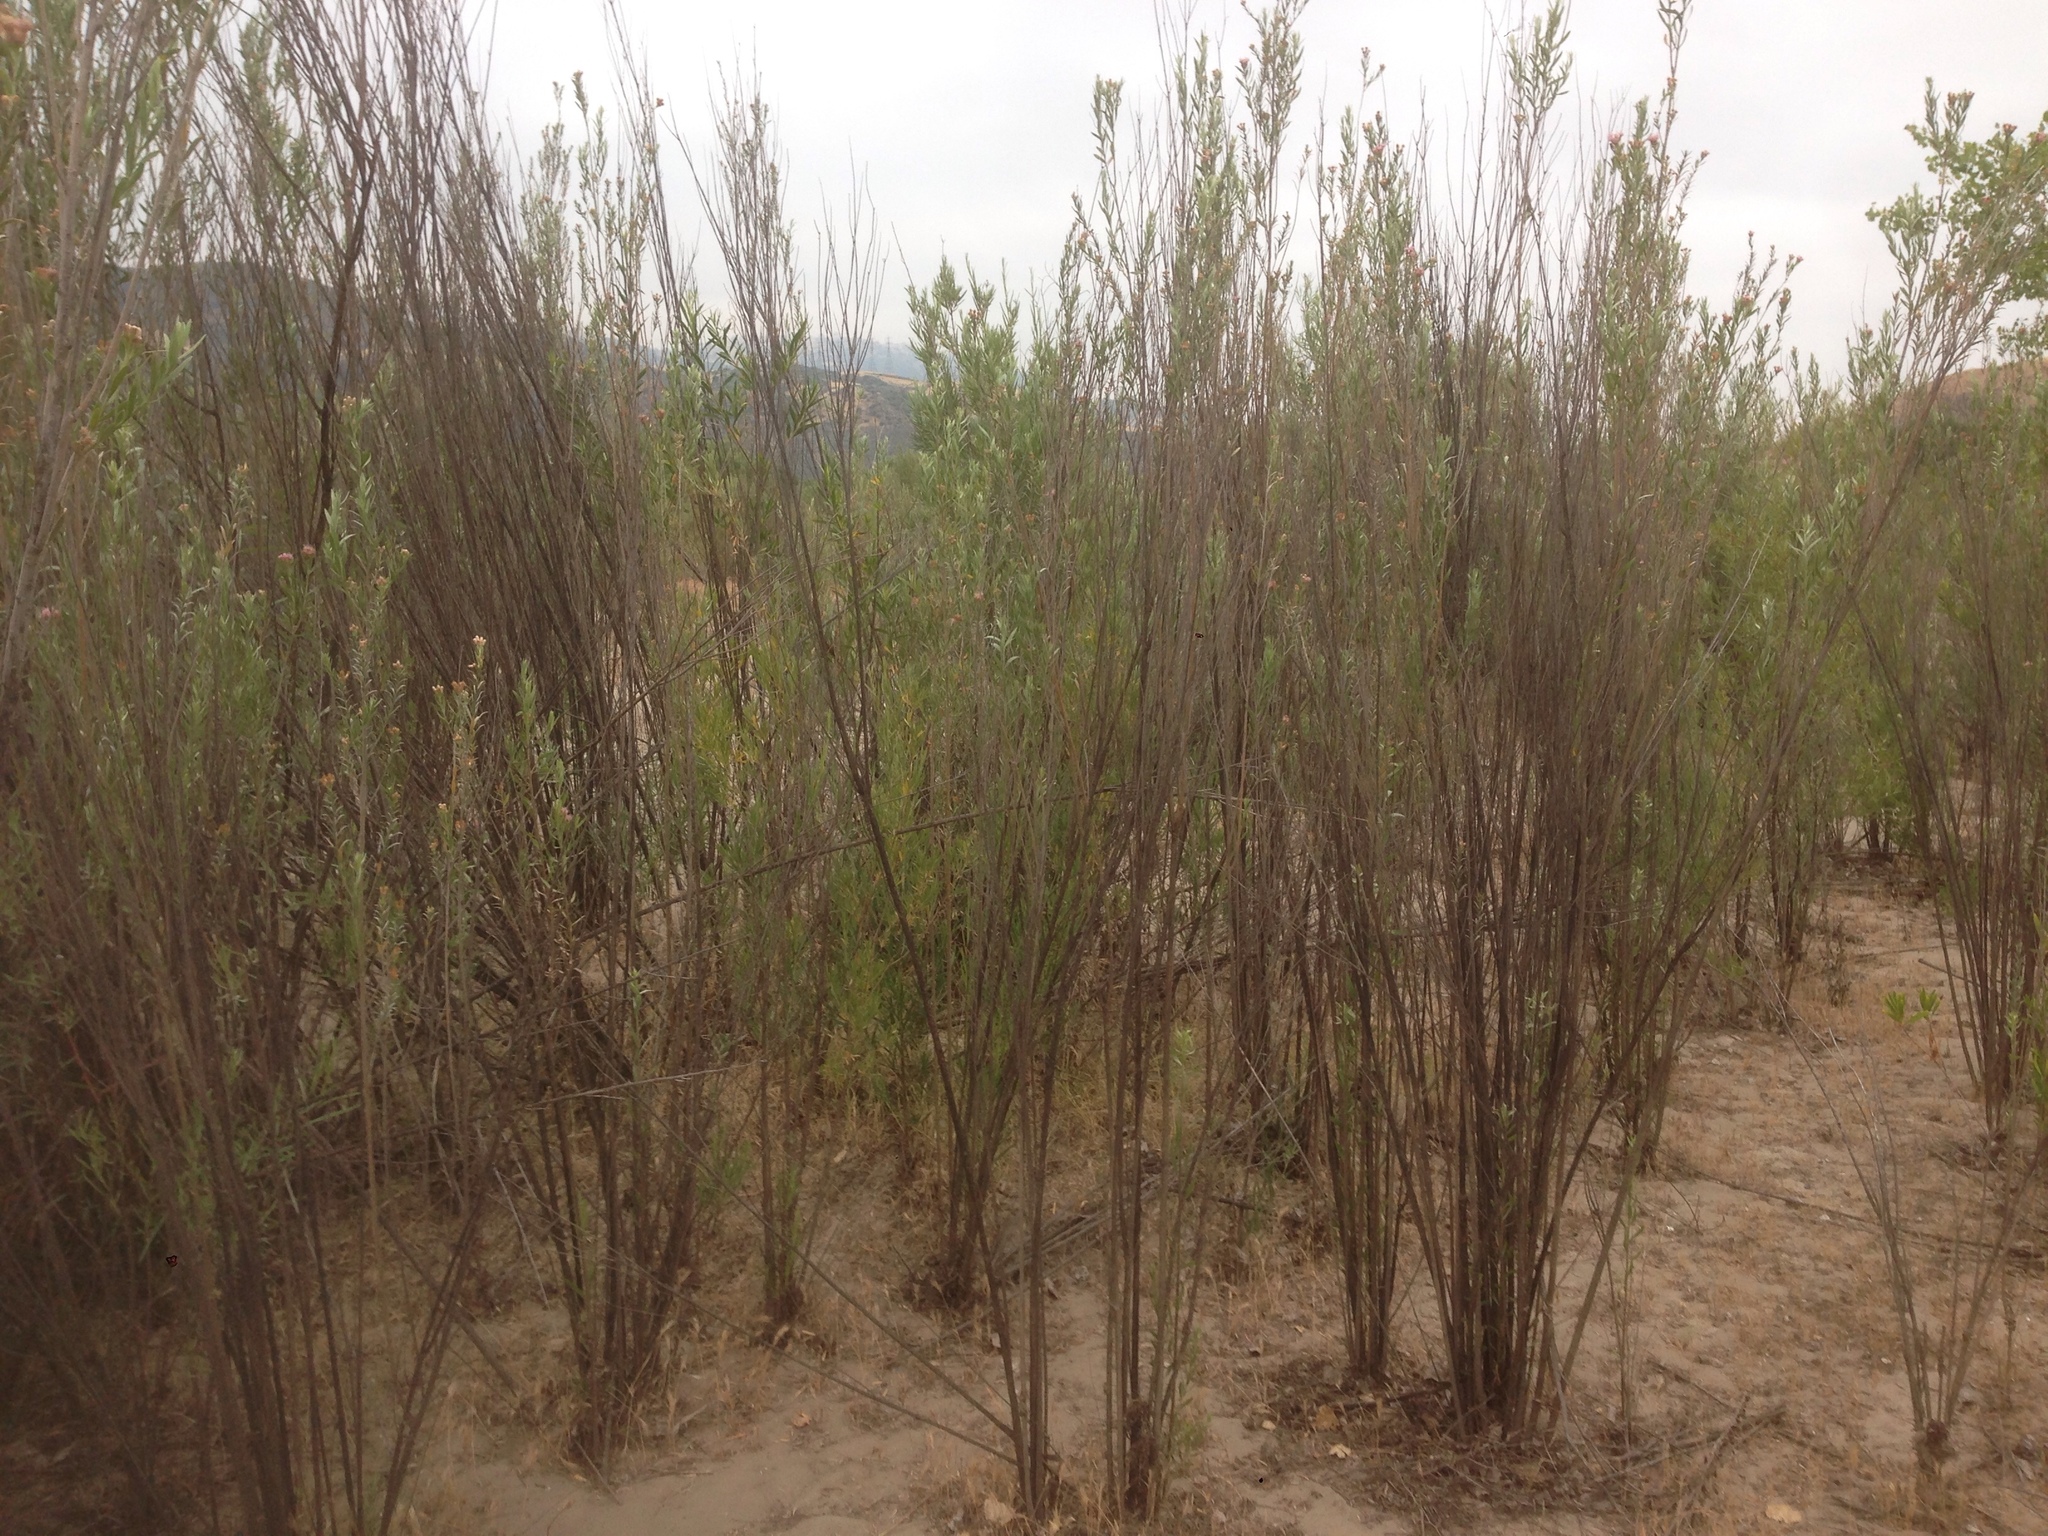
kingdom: Plantae
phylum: Tracheophyta
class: Magnoliopsida
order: Asterales
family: Asteraceae
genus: Pluchea
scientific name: Pluchea sericea
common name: Arrow-weed
